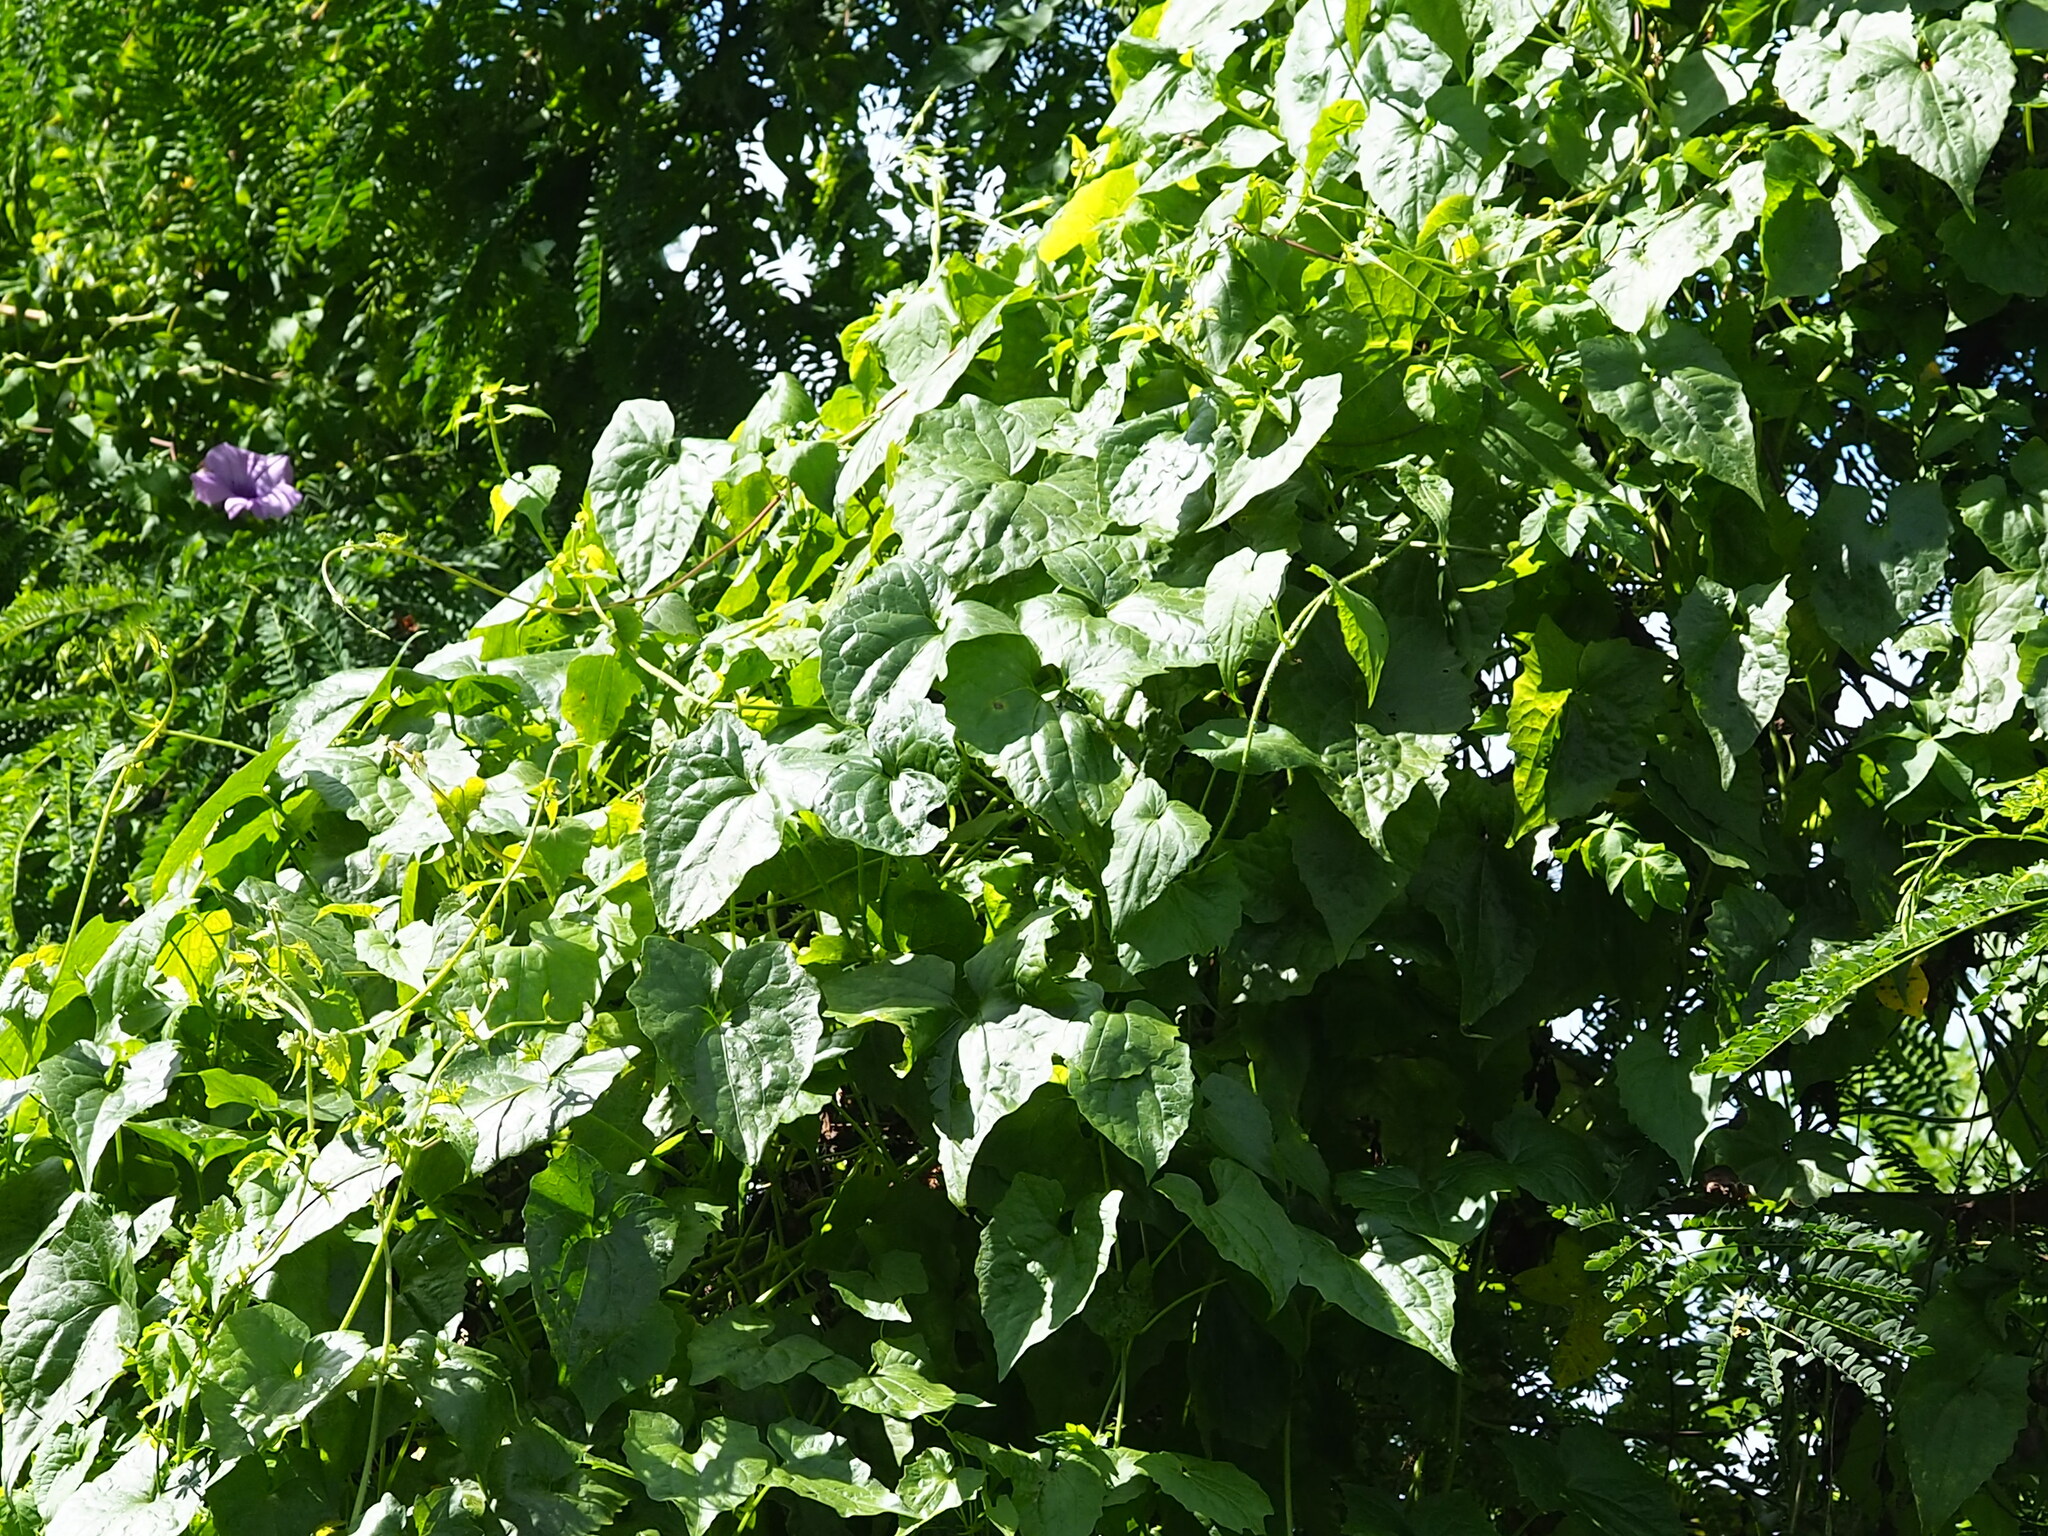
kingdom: Plantae
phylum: Tracheophyta
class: Magnoliopsida
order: Asterales
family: Asteraceae
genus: Mikania
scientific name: Mikania micrantha
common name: Mile-a-minute
